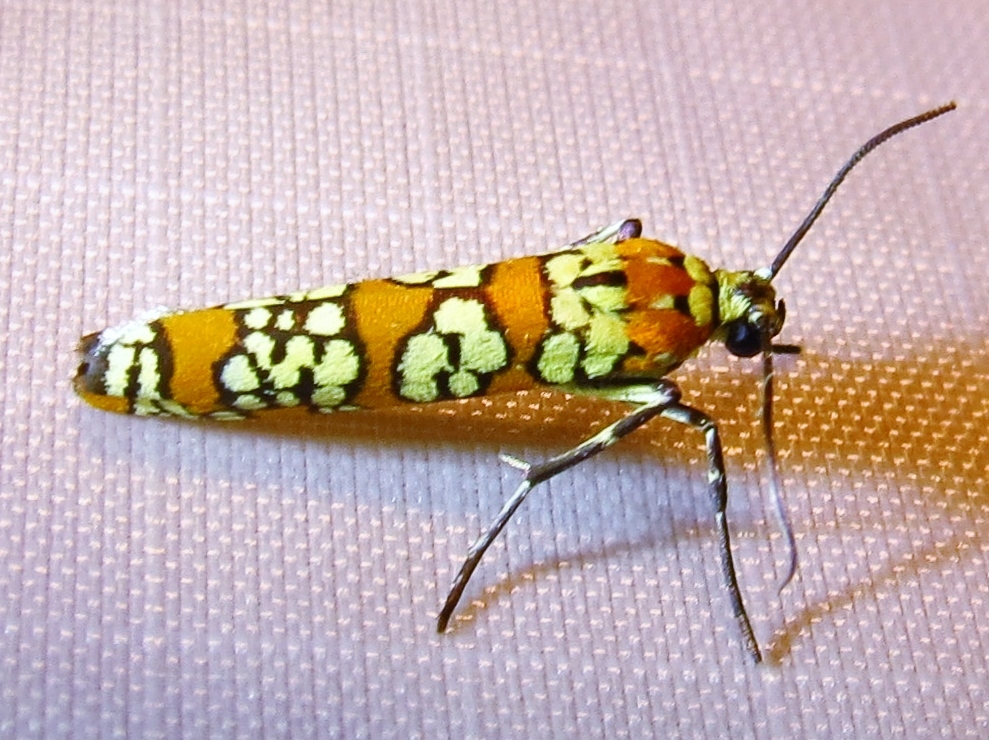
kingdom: Animalia
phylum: Arthropoda
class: Insecta
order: Lepidoptera
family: Attevidae
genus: Atteva
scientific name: Atteva punctella
